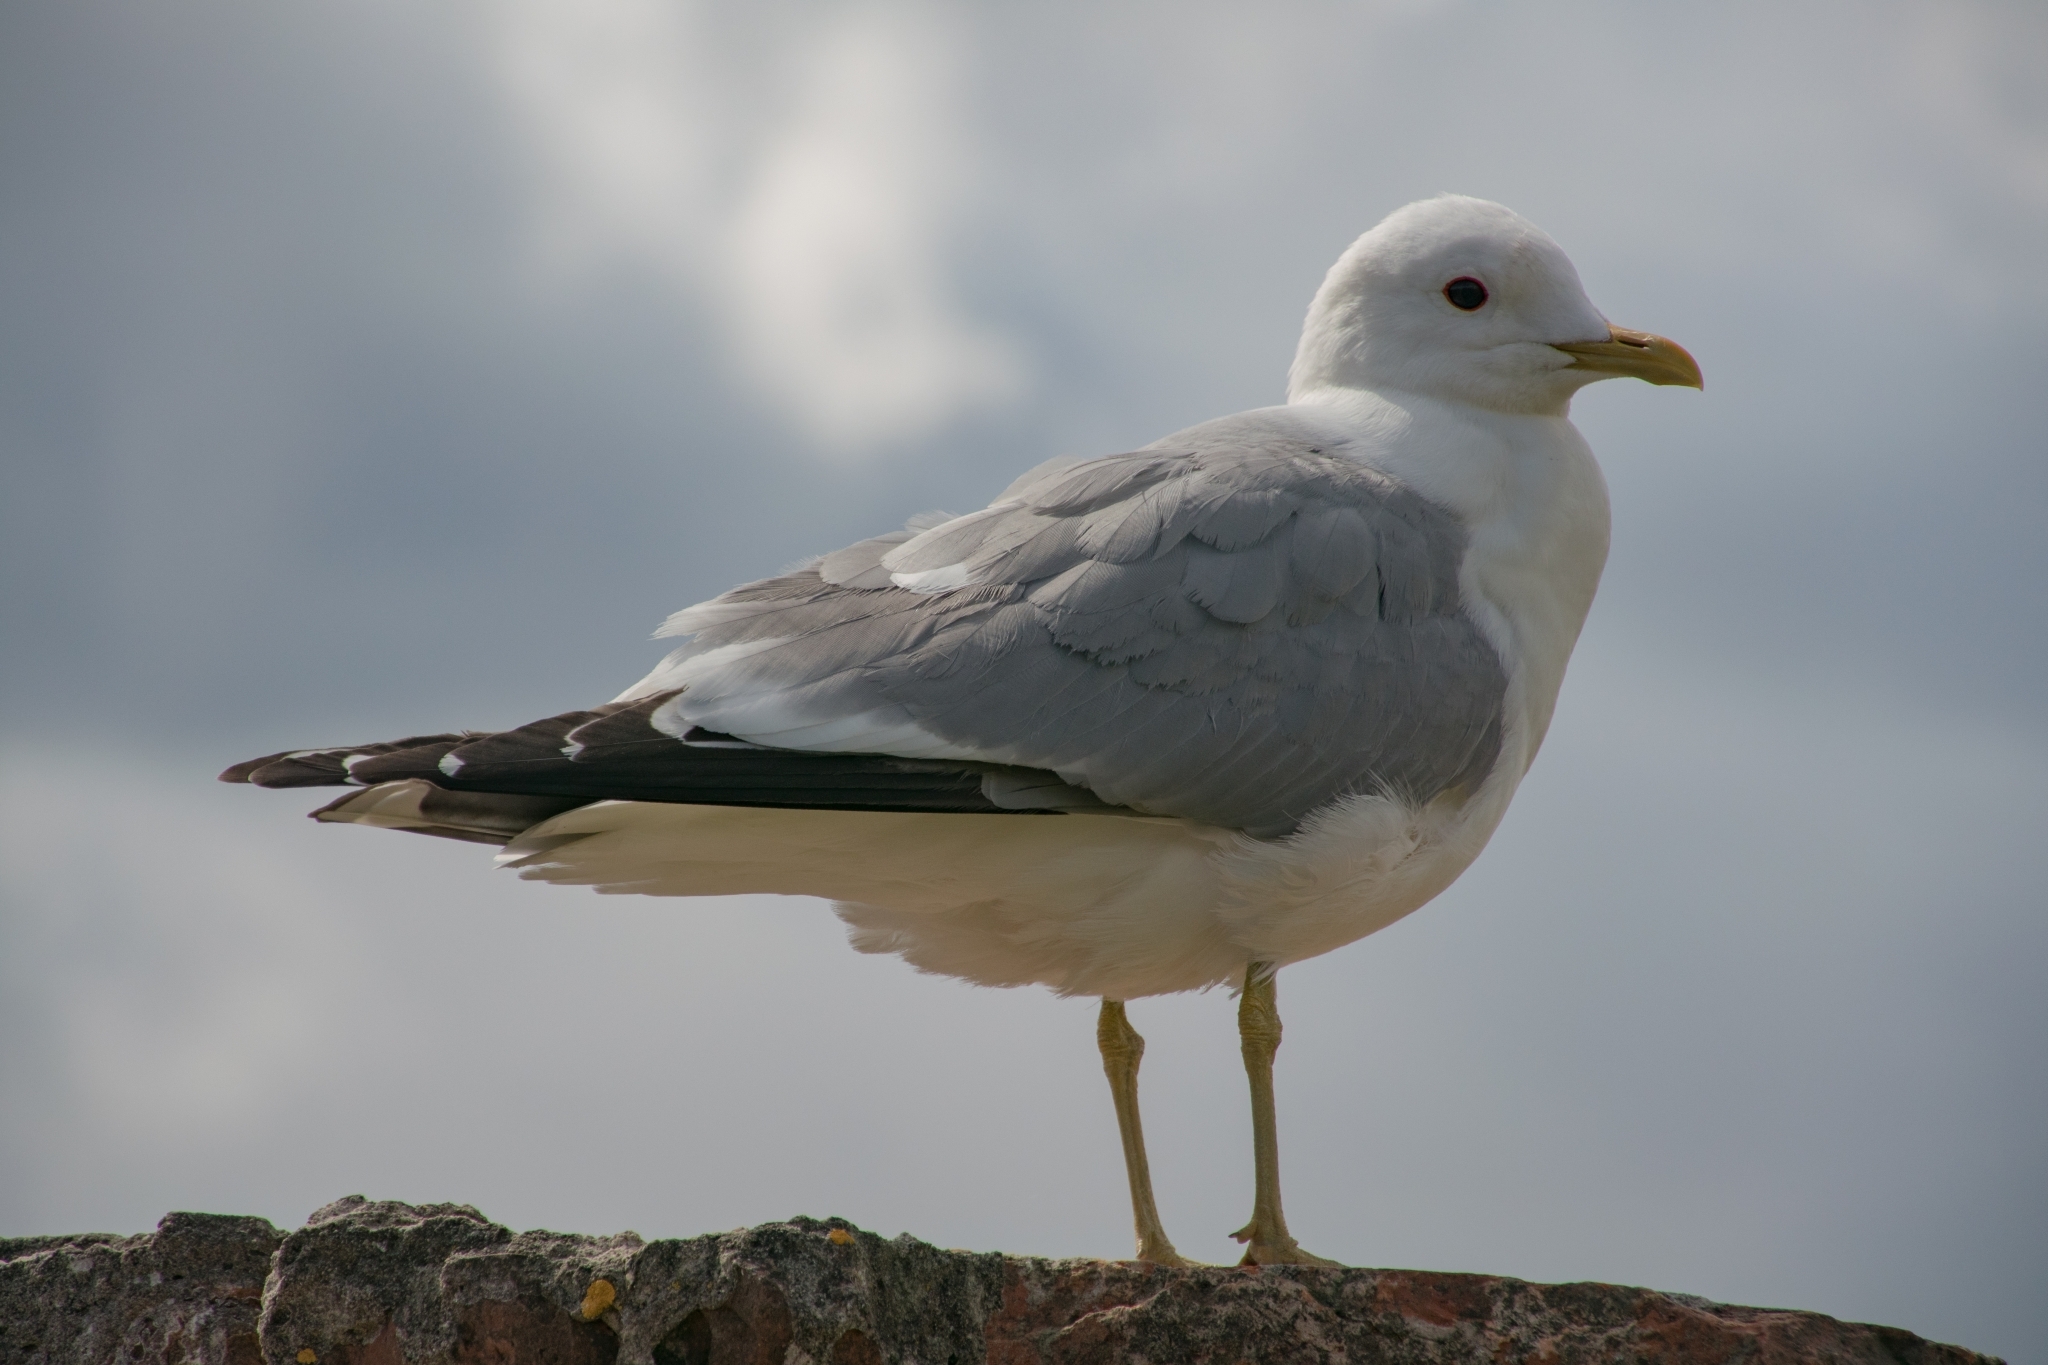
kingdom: Animalia
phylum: Chordata
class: Aves
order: Charadriiformes
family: Laridae
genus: Larus
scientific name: Larus canus
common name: Mew gull
